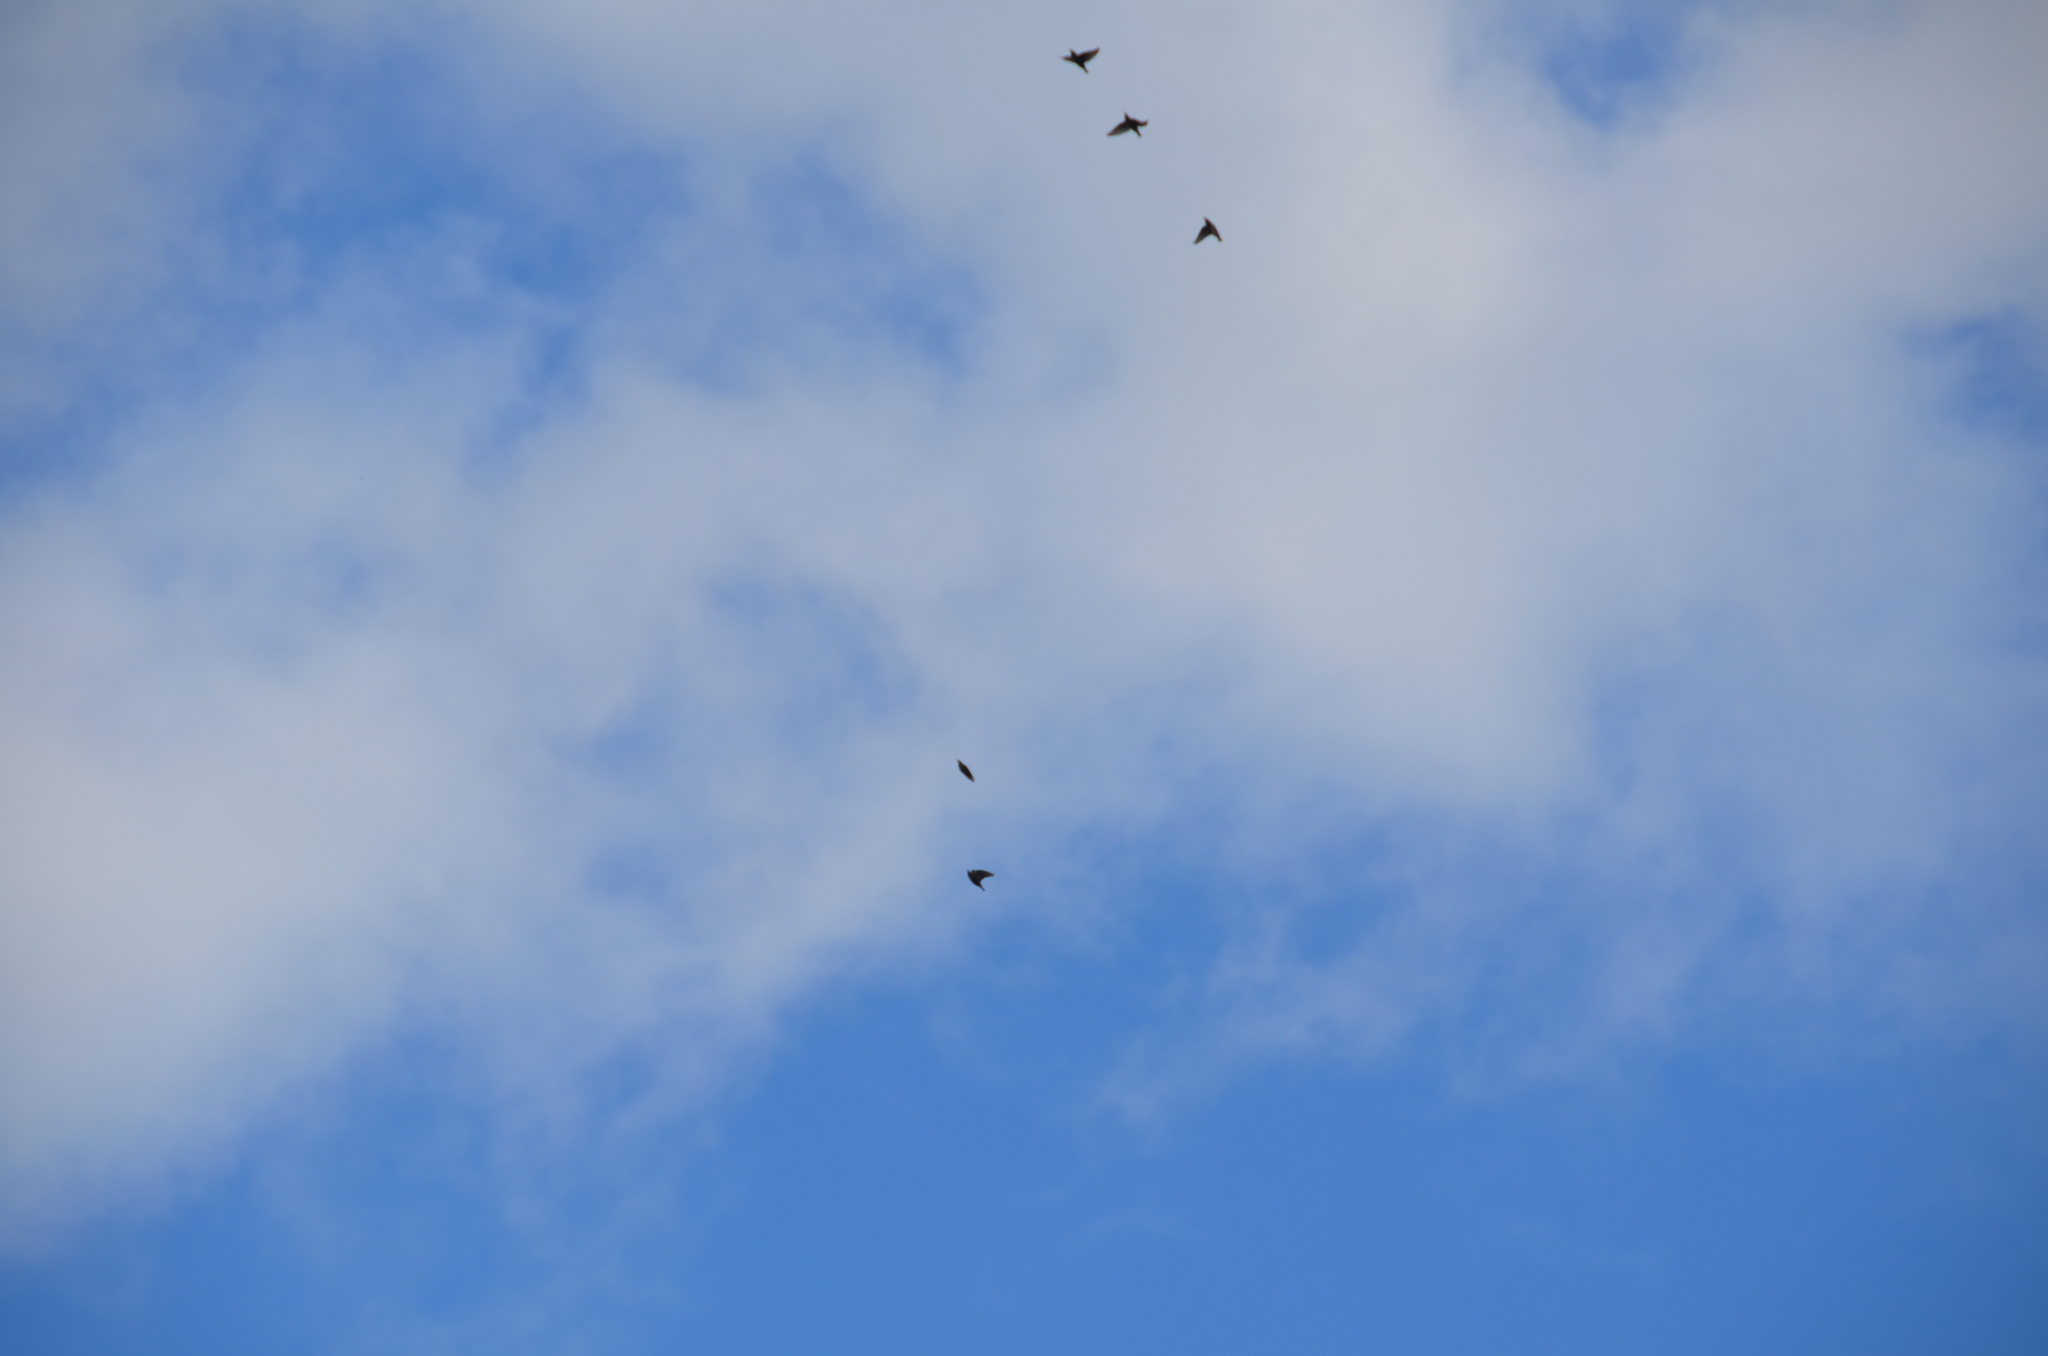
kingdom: Animalia
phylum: Chordata
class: Aves
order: Passeriformes
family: Sturnidae
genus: Sturnus
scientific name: Sturnus vulgaris
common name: Common starling
